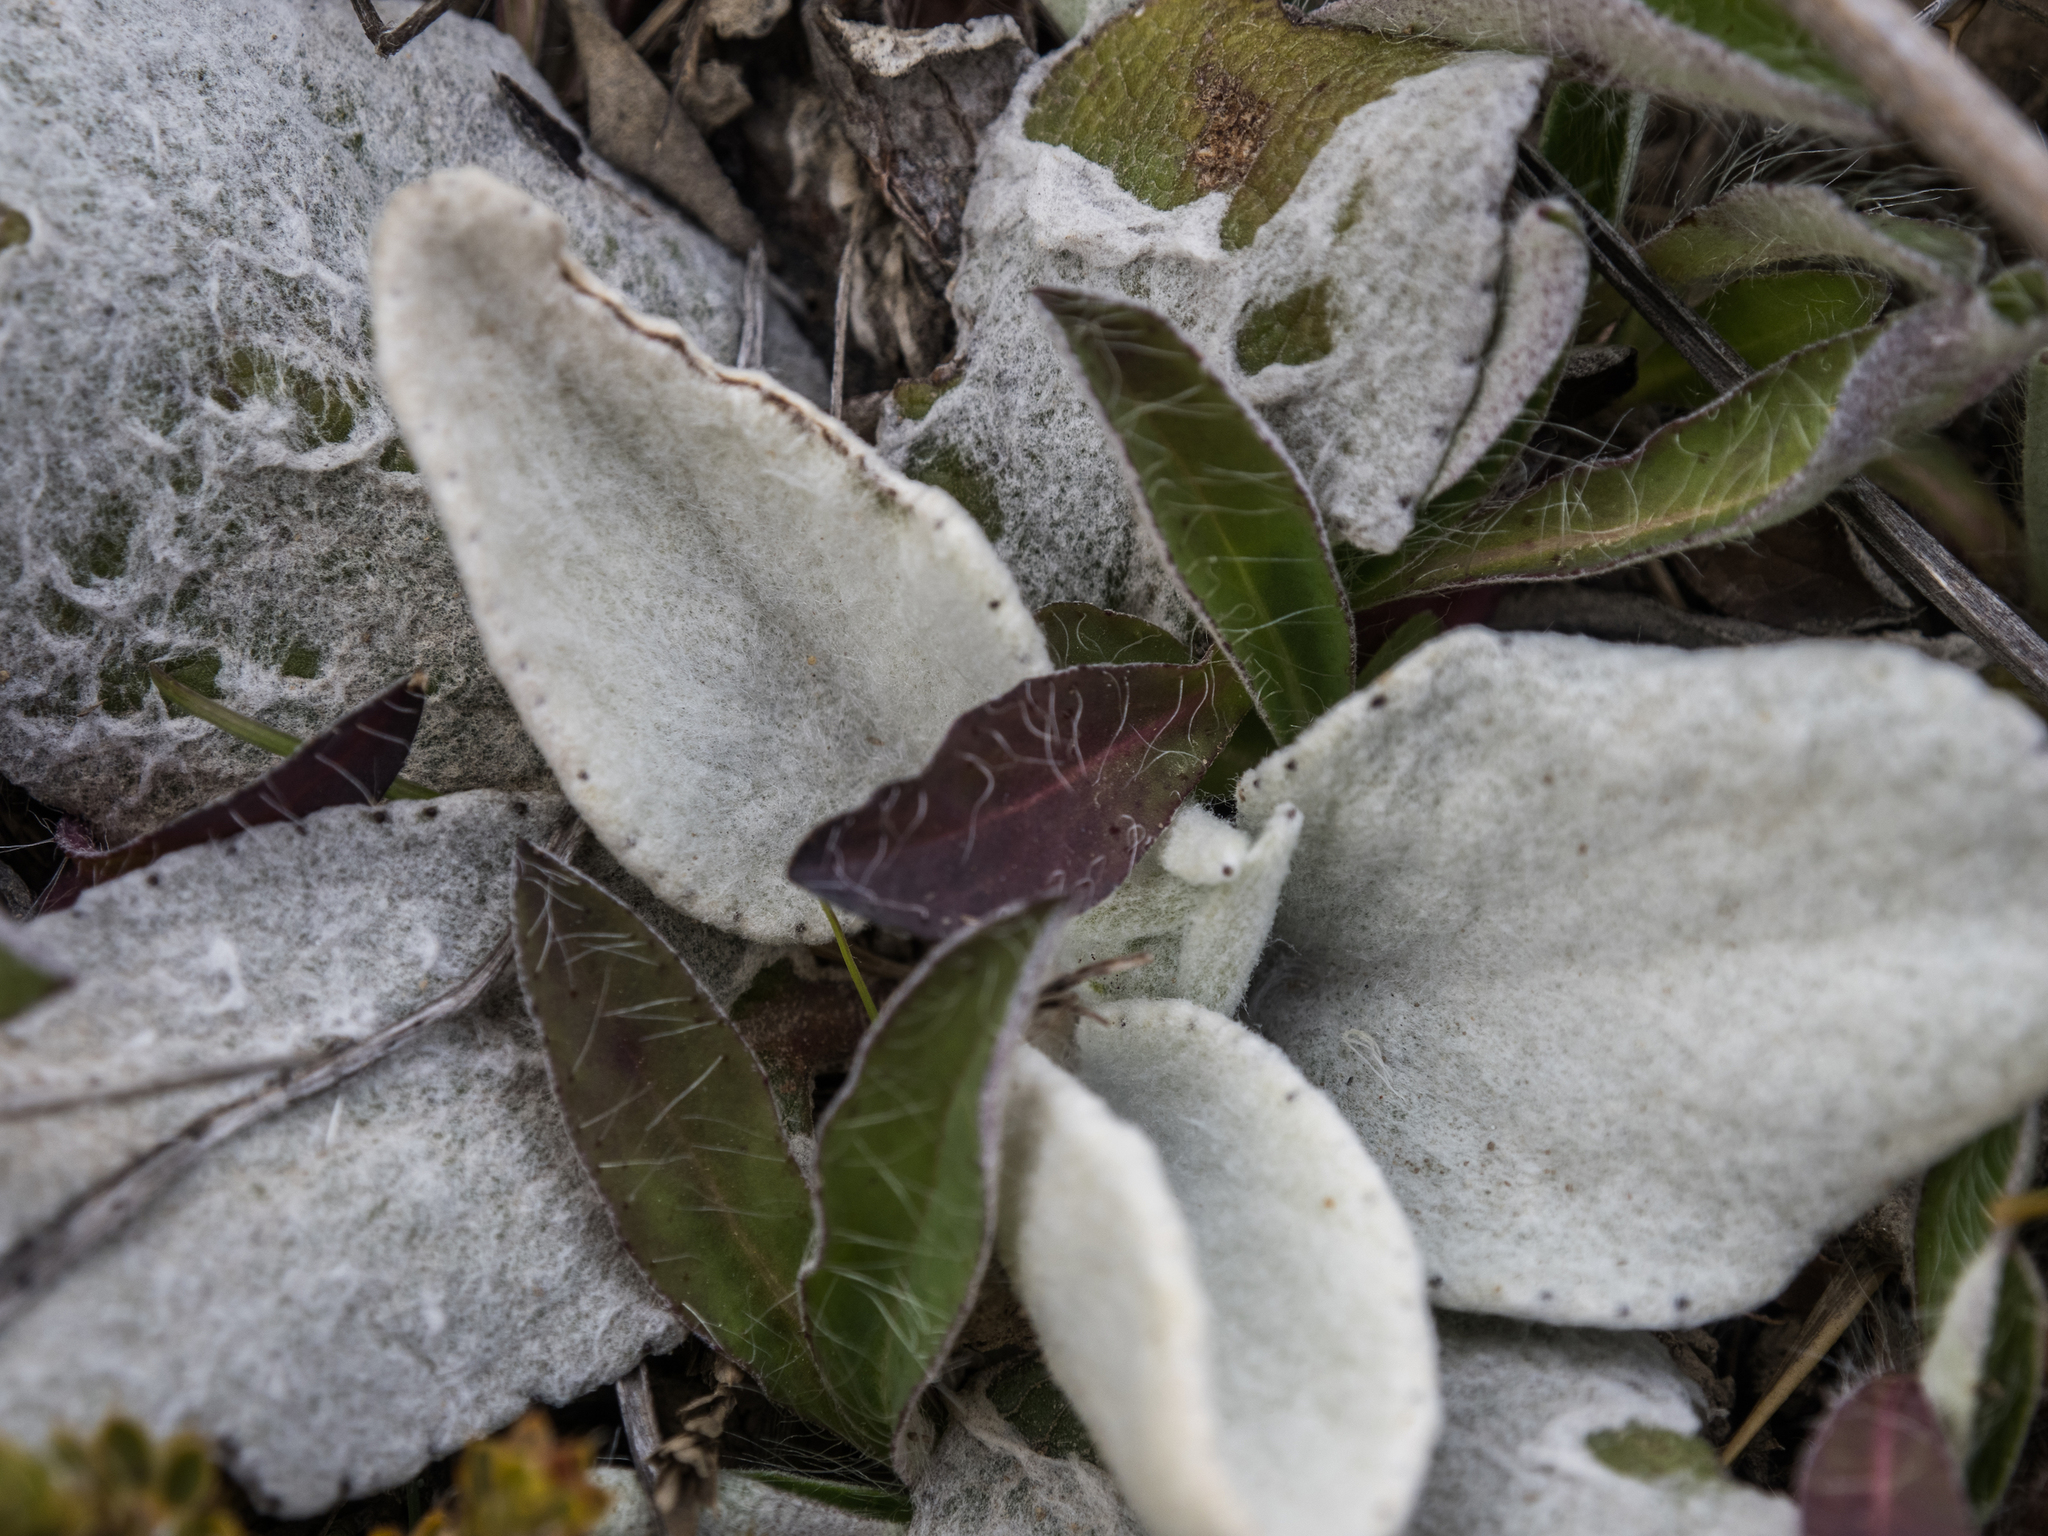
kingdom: Plantae
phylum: Tracheophyta
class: Magnoliopsida
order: Asterales
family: Asteraceae
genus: Brachyglottis
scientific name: Brachyglottis haastii
